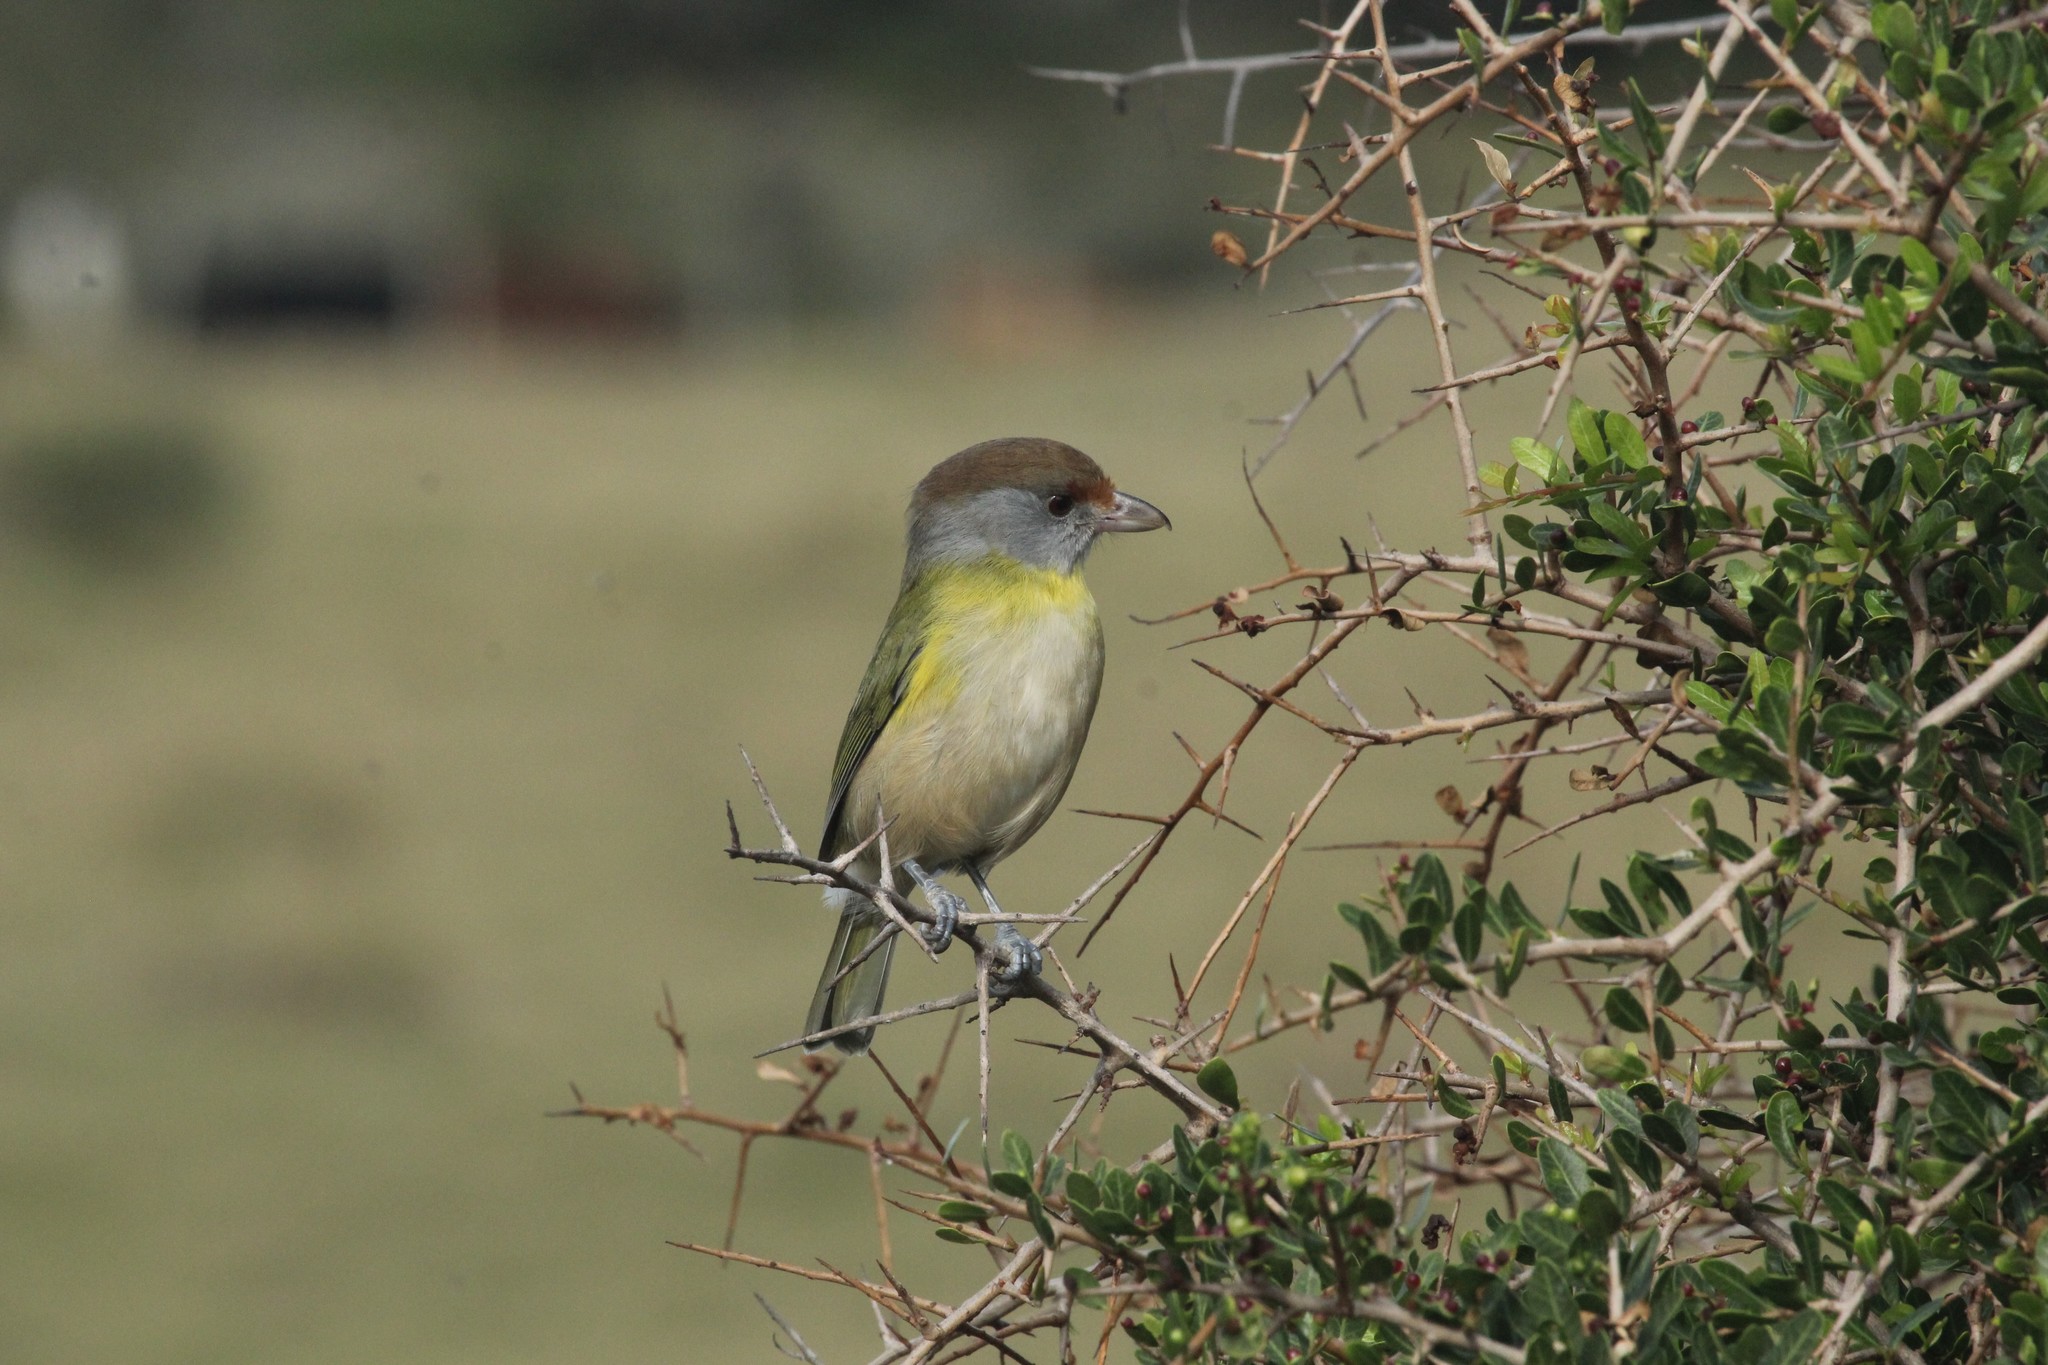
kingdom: Animalia
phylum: Chordata
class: Aves
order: Passeriformes
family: Vireonidae
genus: Cyclarhis
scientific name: Cyclarhis gujanensis
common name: Rufous-browed peppershrike
